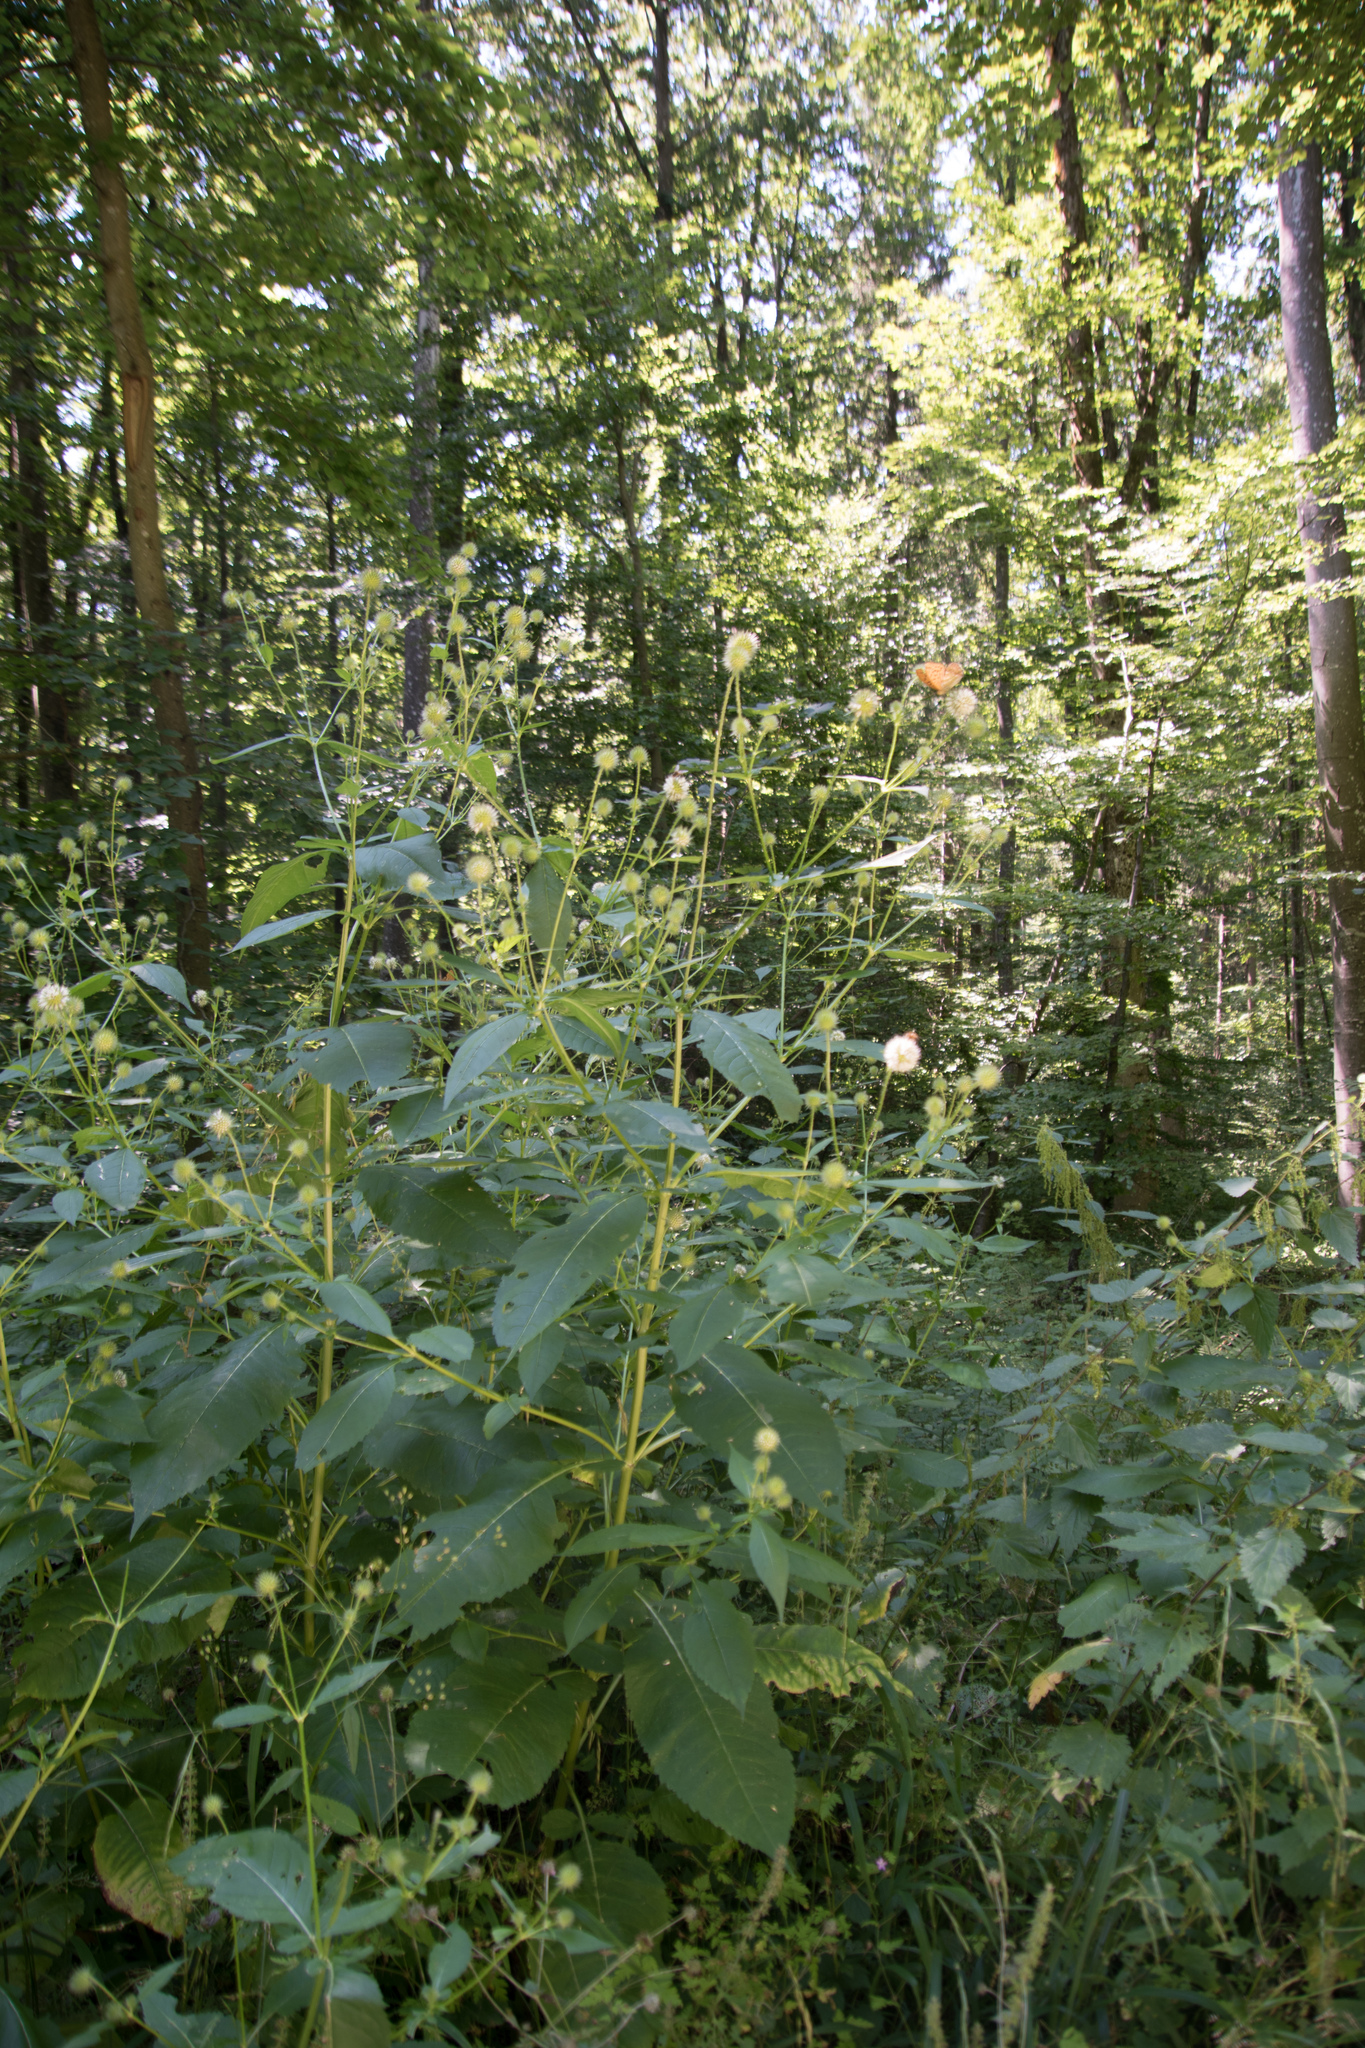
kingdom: Plantae
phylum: Tracheophyta
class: Magnoliopsida
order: Dipsacales
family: Caprifoliaceae
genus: Dipsacus
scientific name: Dipsacus pilosus
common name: Small teasel
